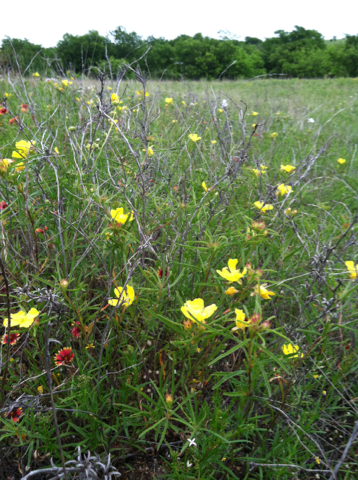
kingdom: Plantae
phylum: Tracheophyta
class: Magnoliopsida
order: Myrtales
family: Onagraceae
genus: Oenothera
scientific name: Oenothera
